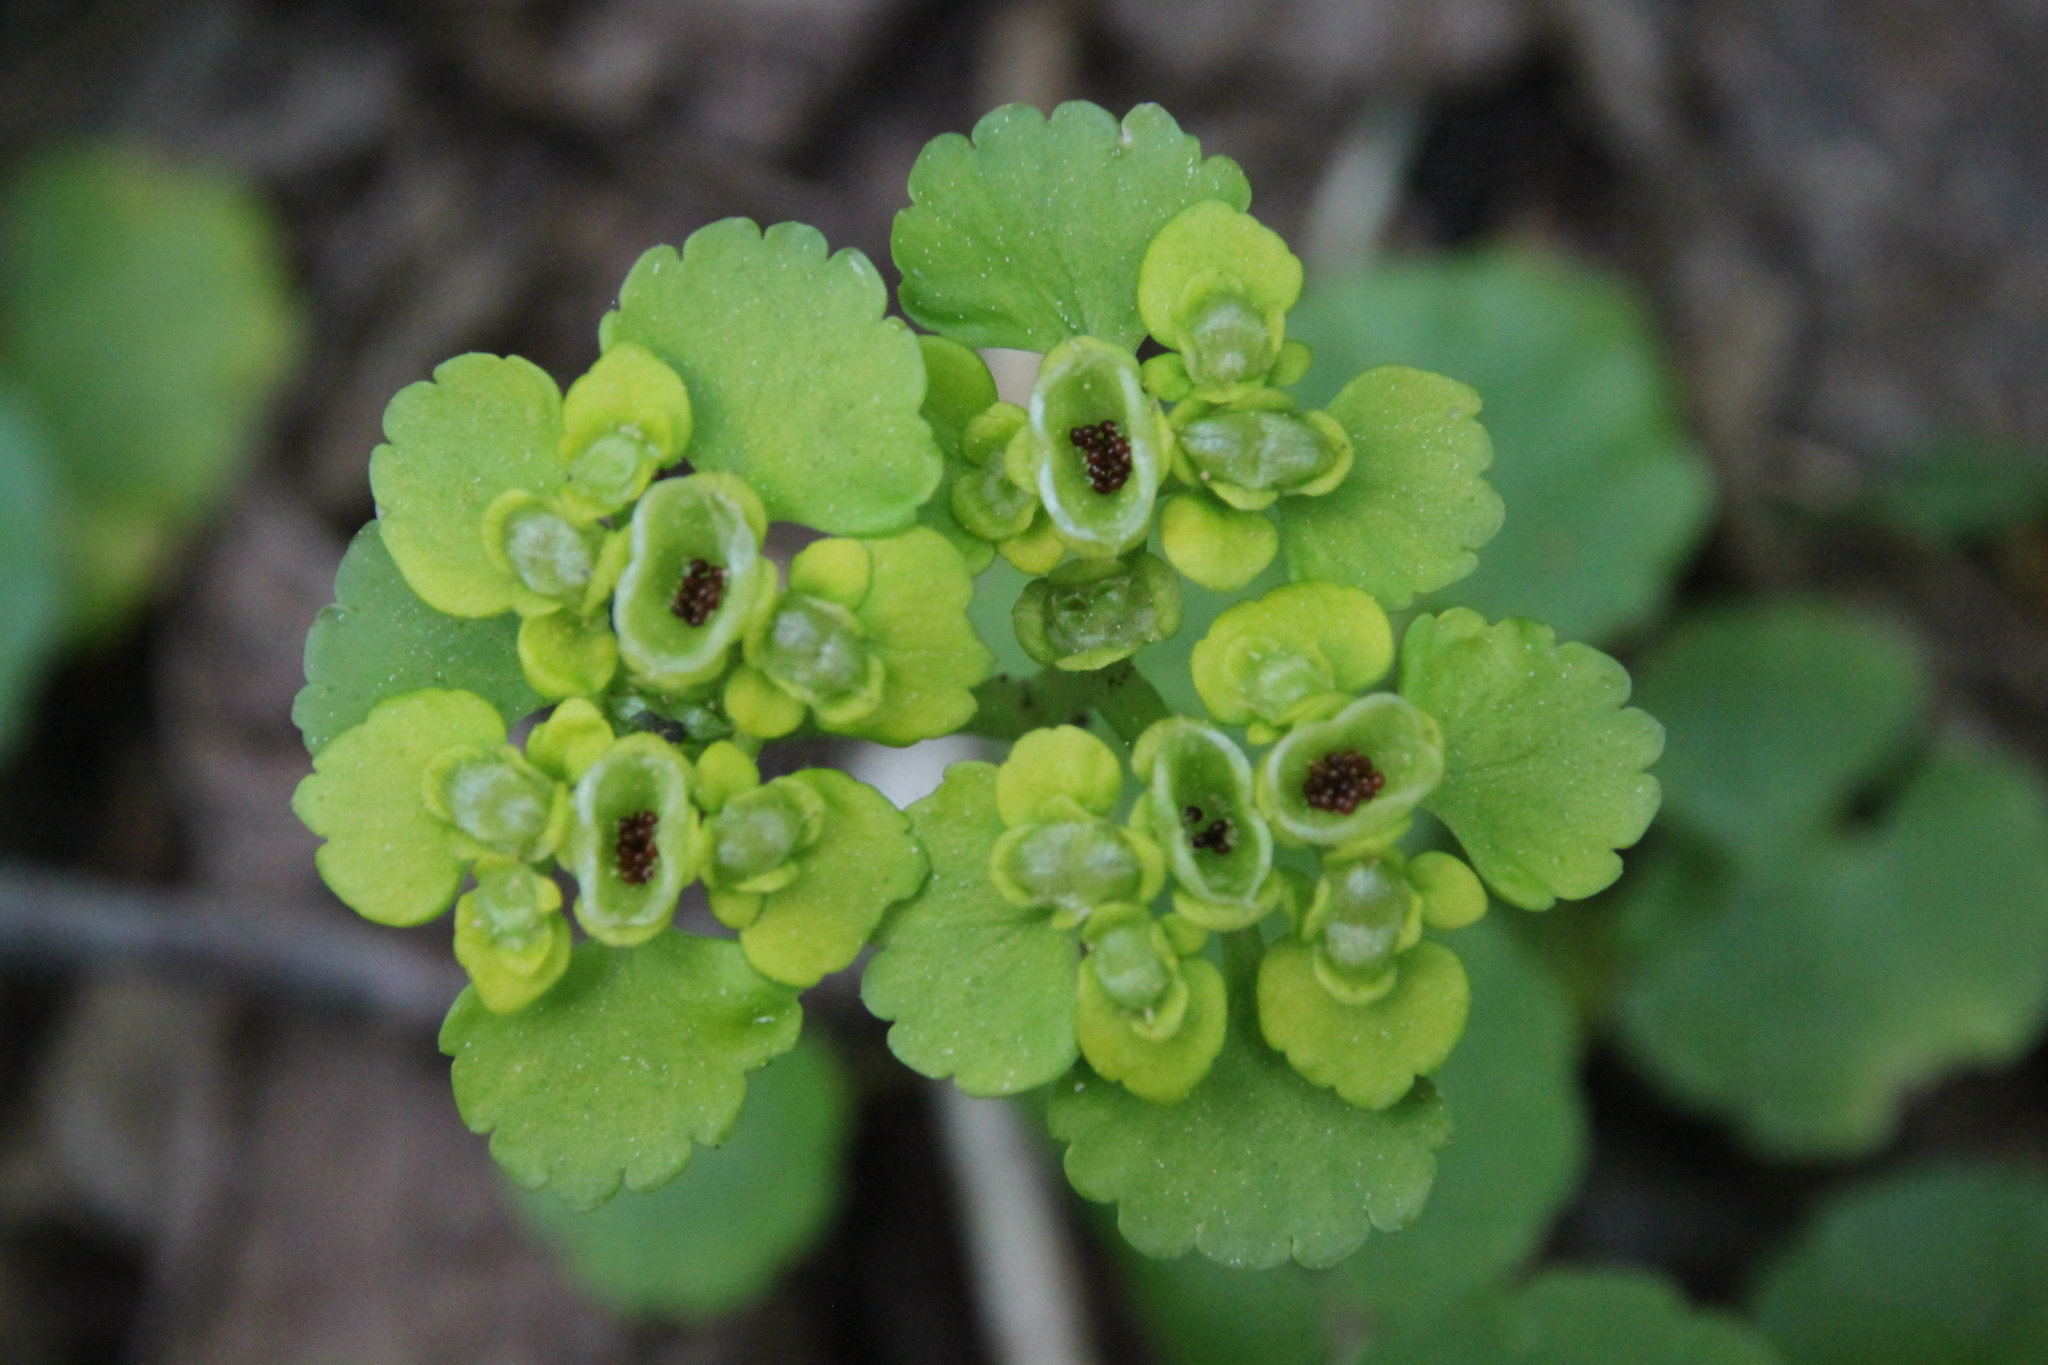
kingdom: Plantae
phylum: Tracheophyta
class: Magnoliopsida
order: Saxifragales
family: Saxifragaceae
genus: Chrysosplenium
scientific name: Chrysosplenium alternifolium
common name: Alternate-leaved golden-saxifrage
